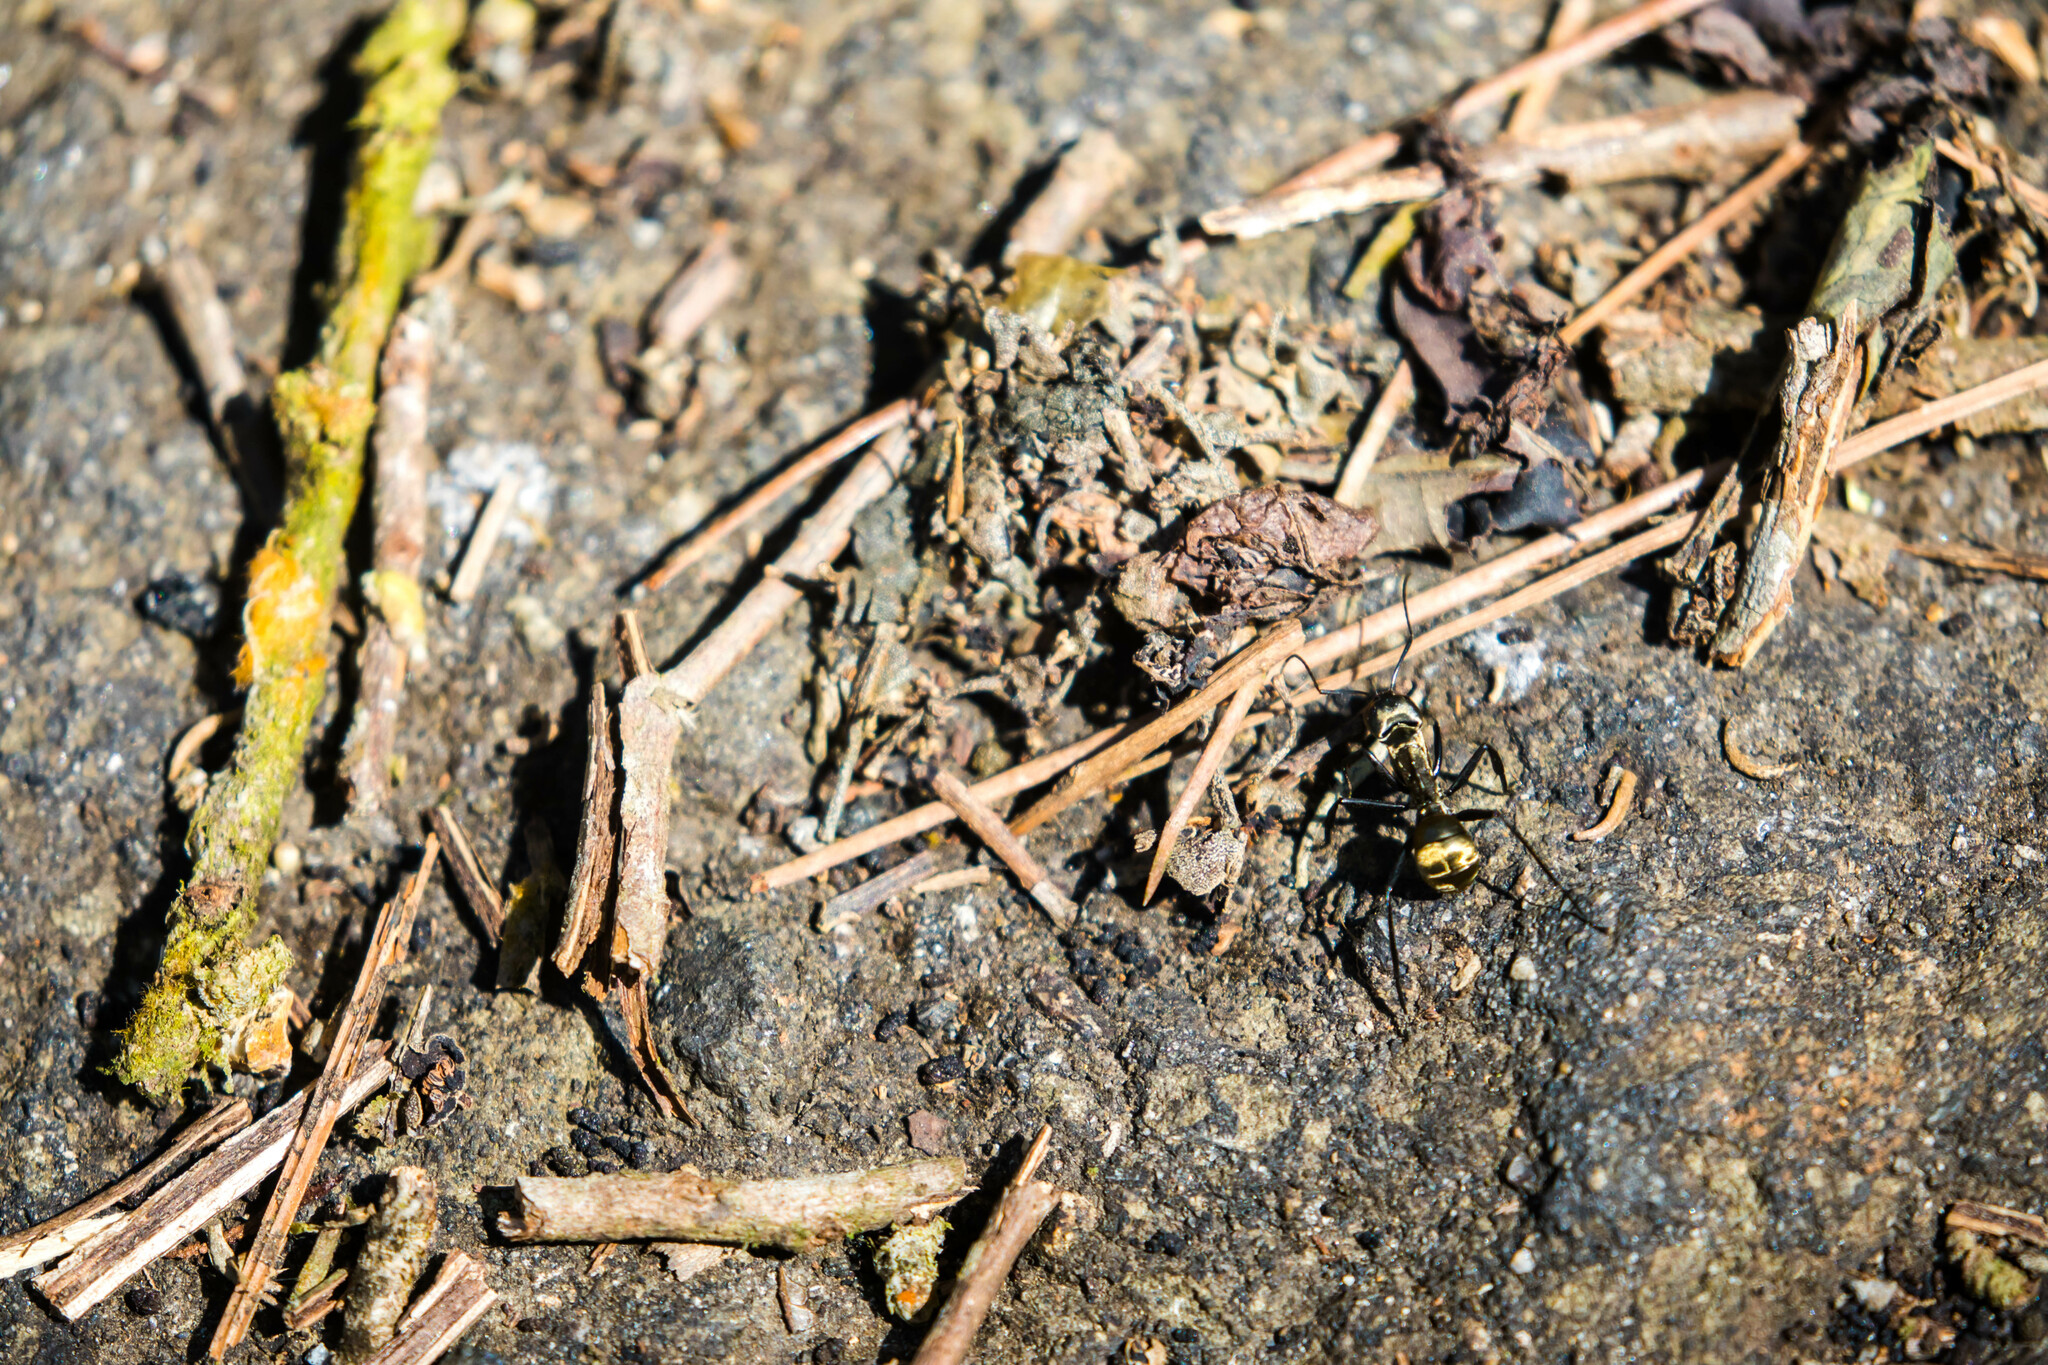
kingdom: Animalia
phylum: Arthropoda
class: Insecta
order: Hymenoptera
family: Formicidae
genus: Camponotus
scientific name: Camponotus sericeiventris
